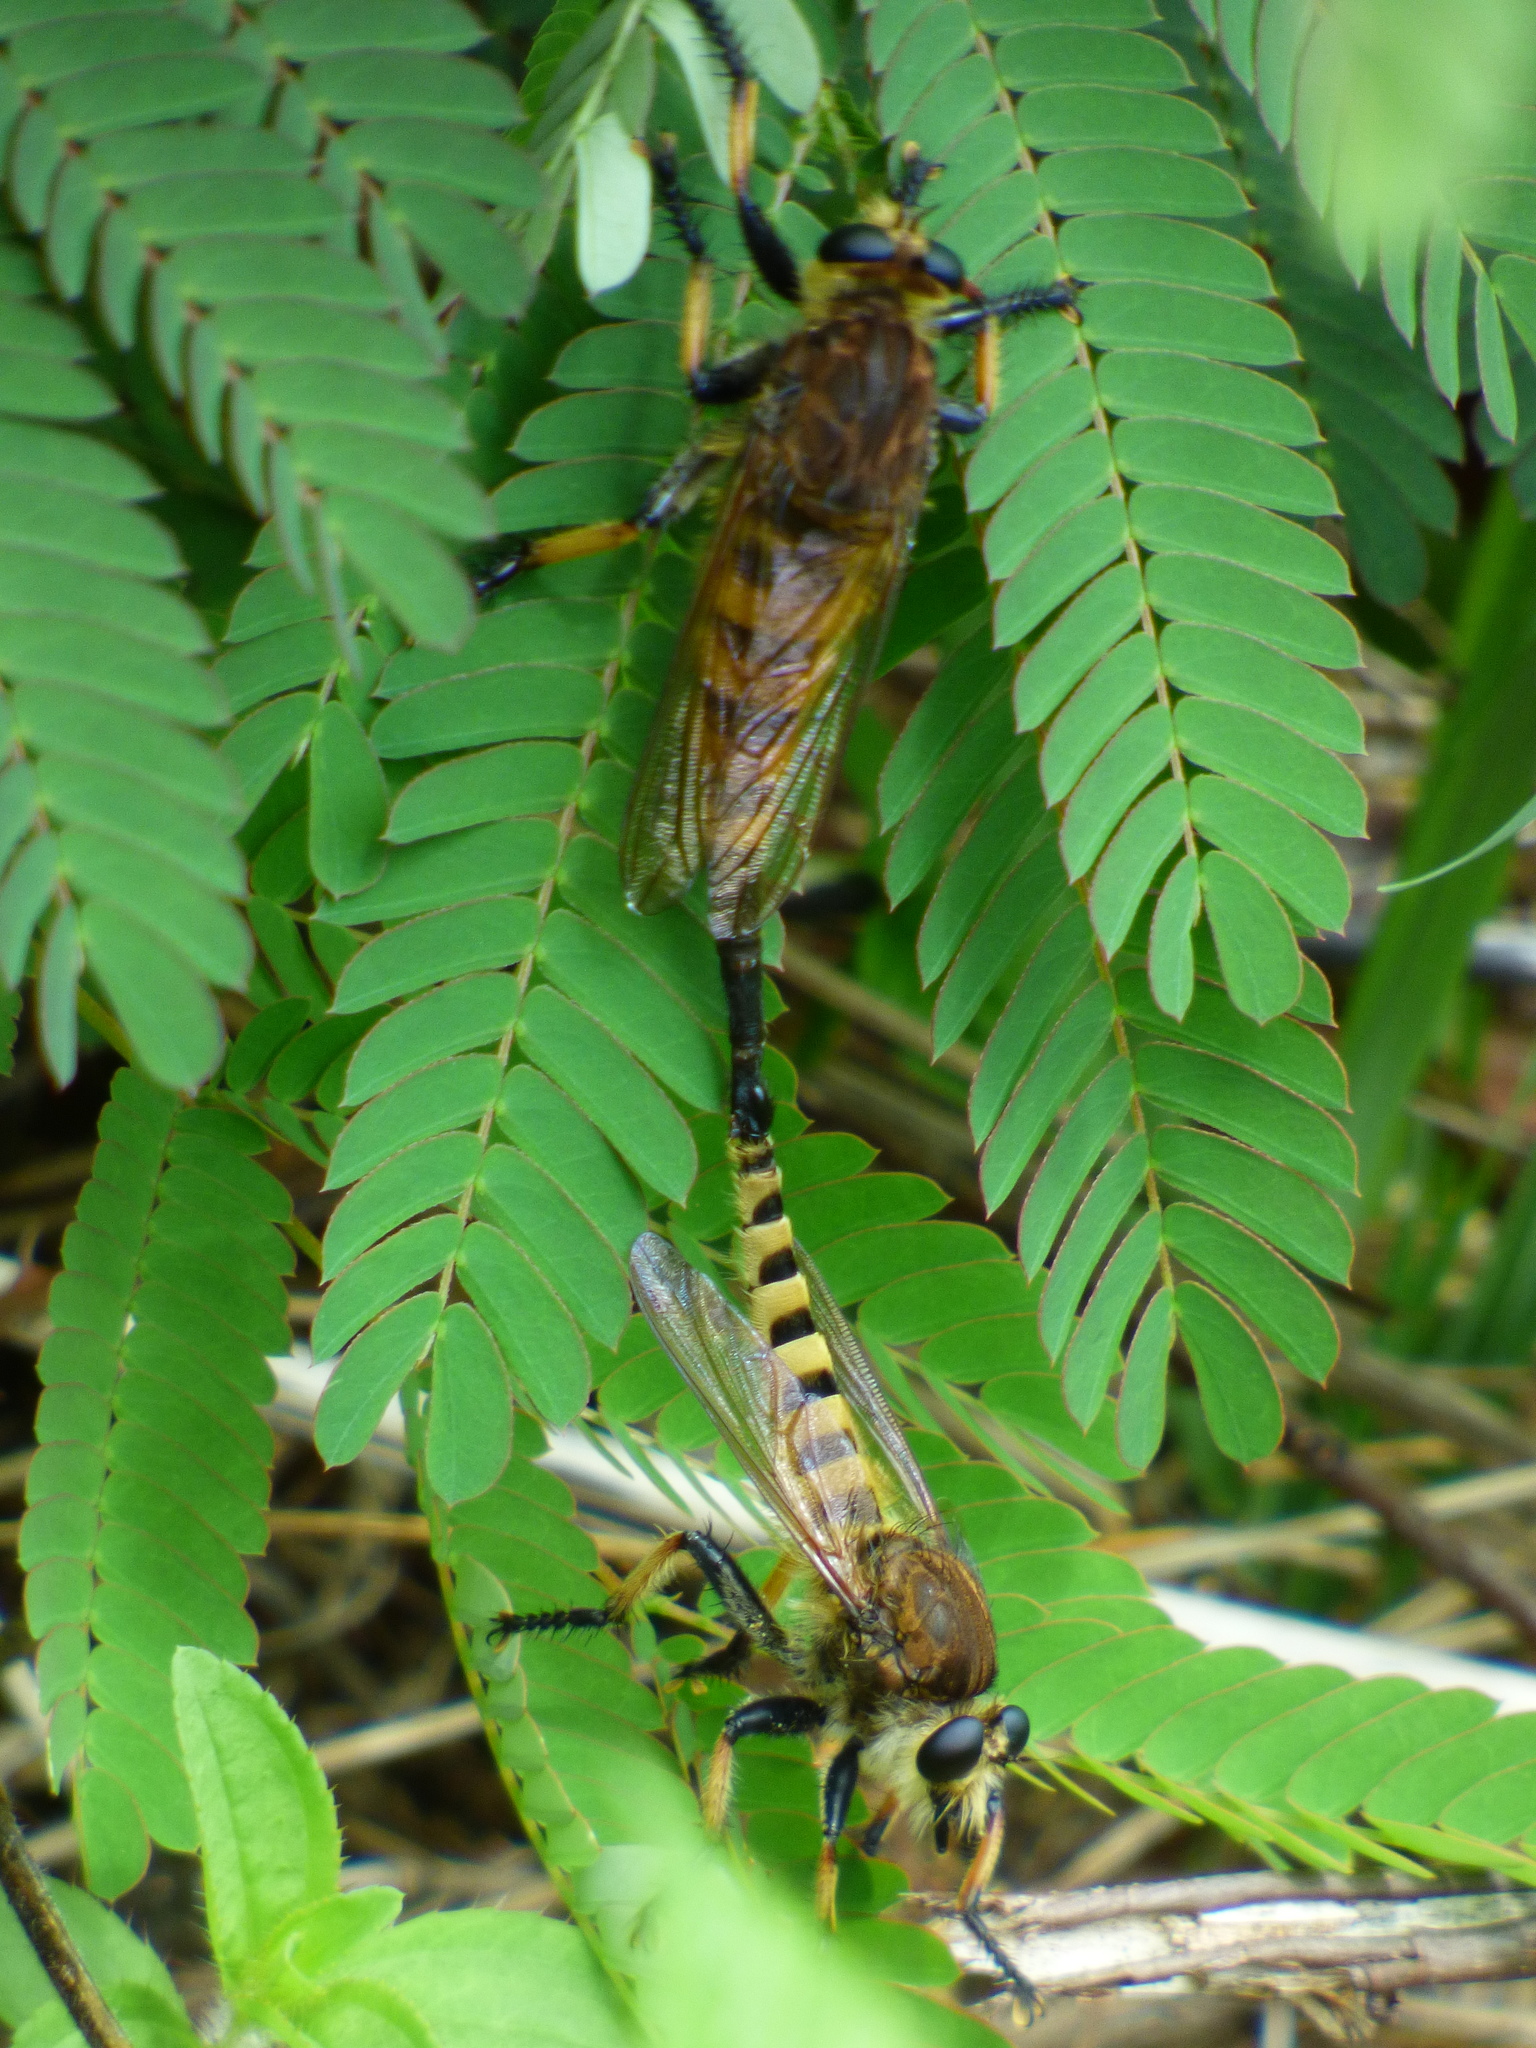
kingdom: Animalia
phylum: Arthropoda
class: Insecta
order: Diptera
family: Asilidae
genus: Promachus
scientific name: Promachus rufipes
